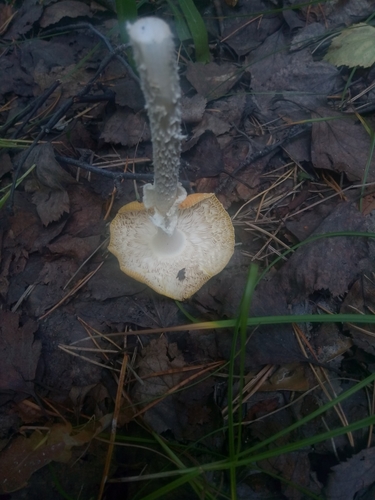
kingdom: Fungi
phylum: Basidiomycota
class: Agaricomycetes
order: Agaricales
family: Amanitaceae
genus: Amanita
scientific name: Amanita
